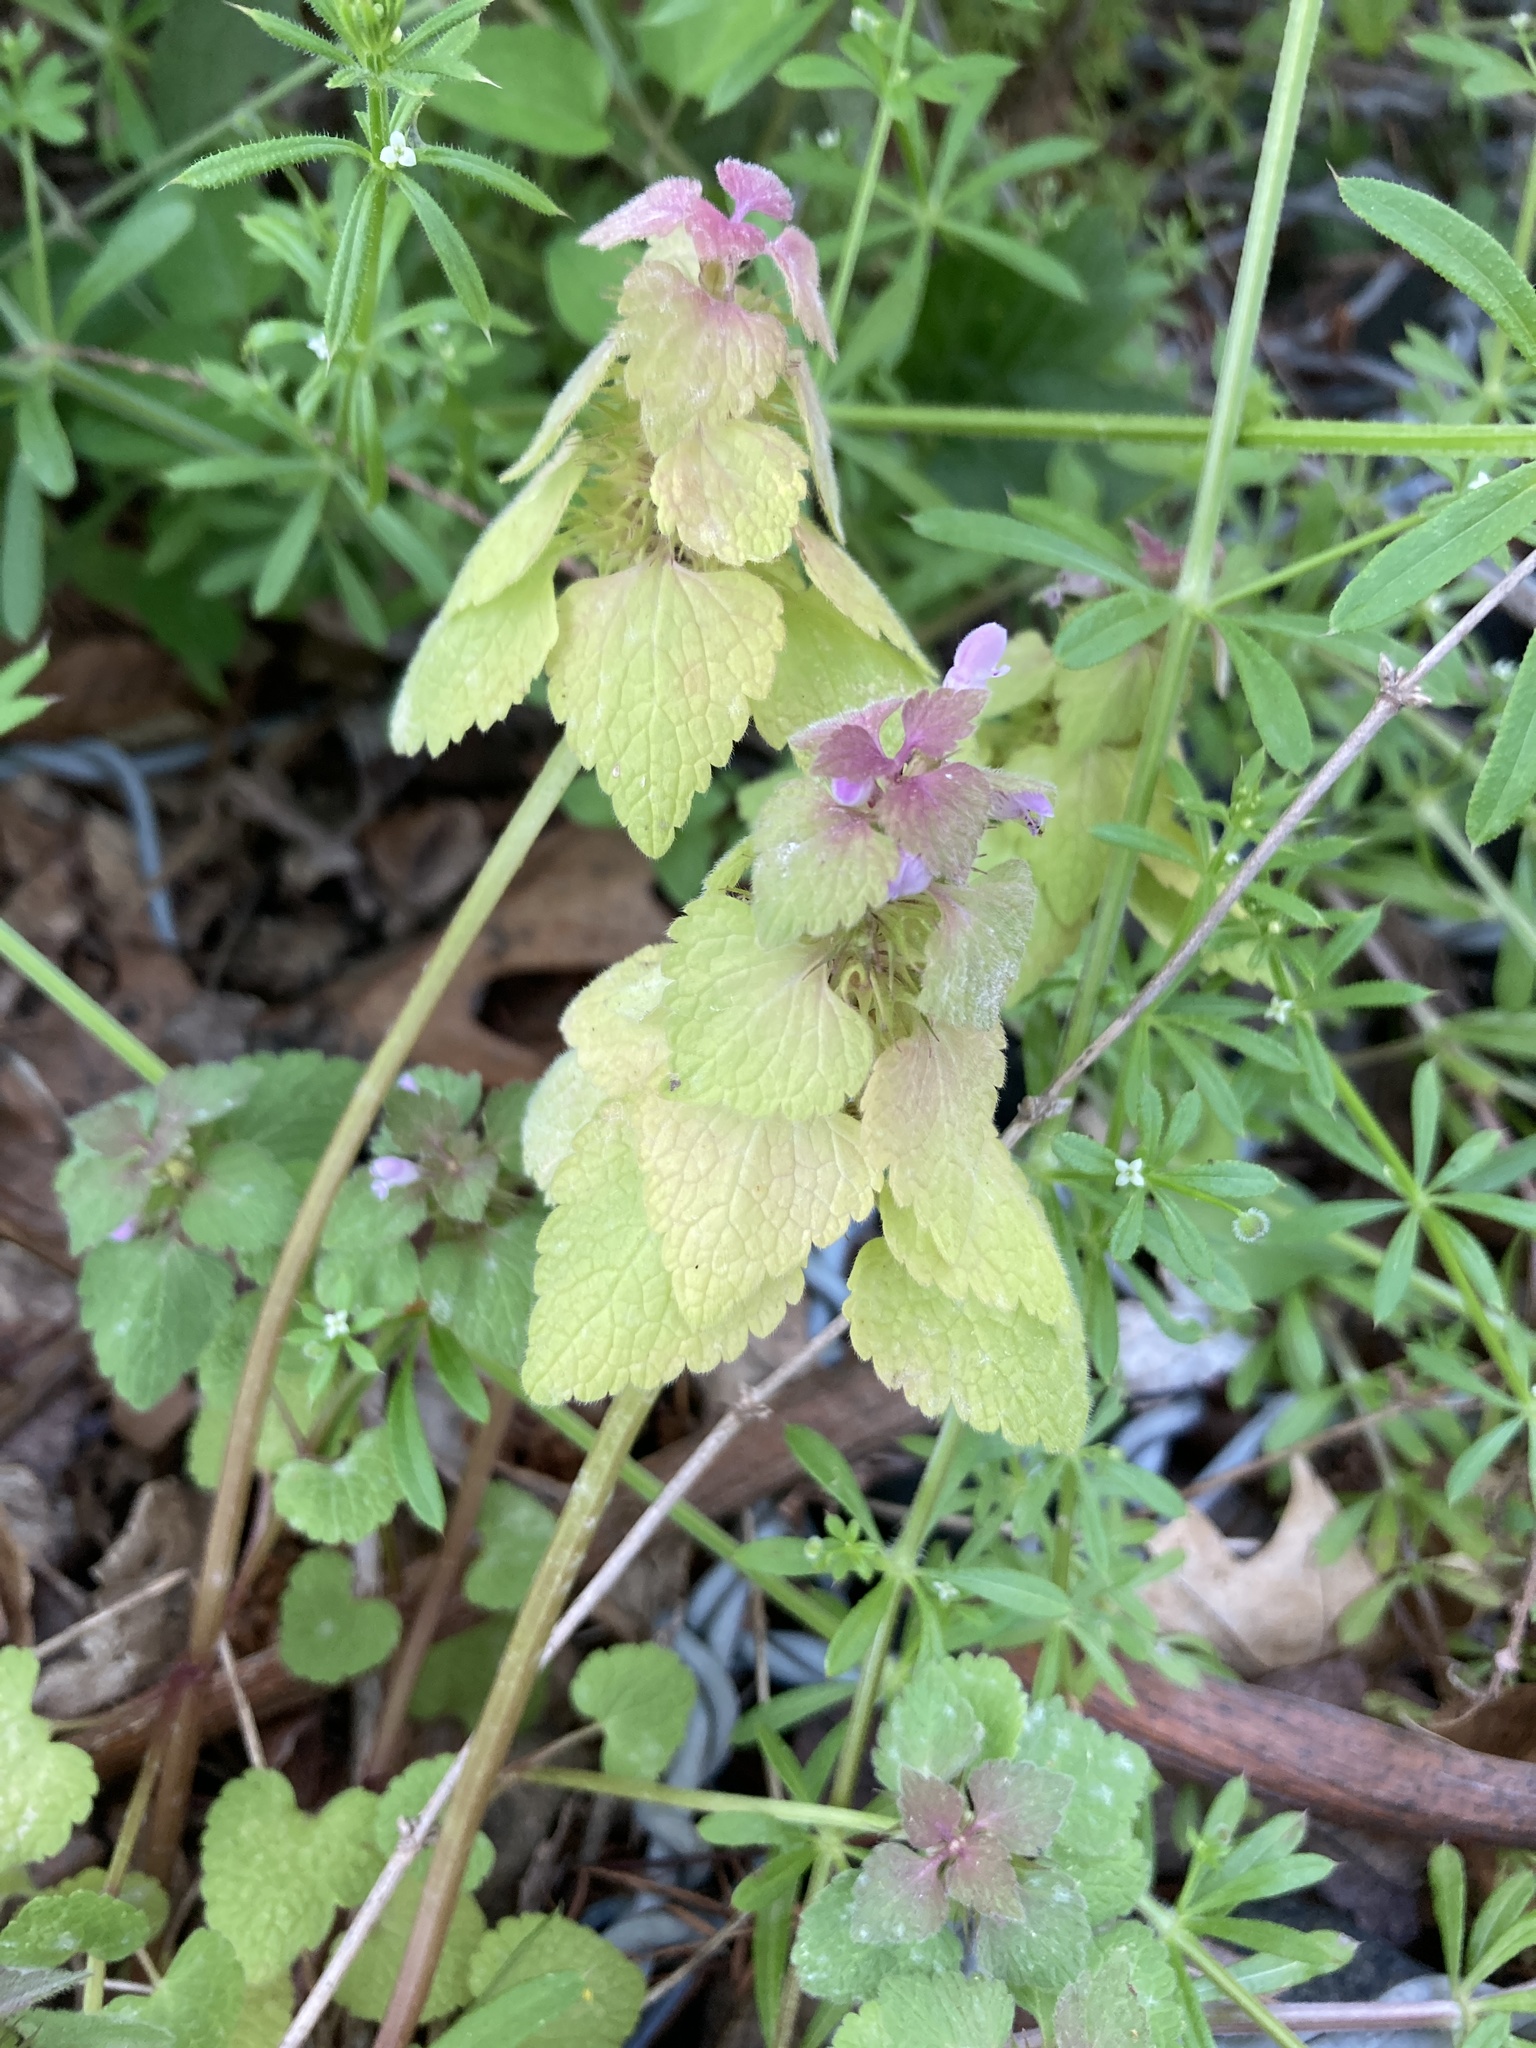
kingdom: Plantae
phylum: Tracheophyta
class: Magnoliopsida
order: Lamiales
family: Lamiaceae
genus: Lamium
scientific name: Lamium purpureum
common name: Red dead-nettle
